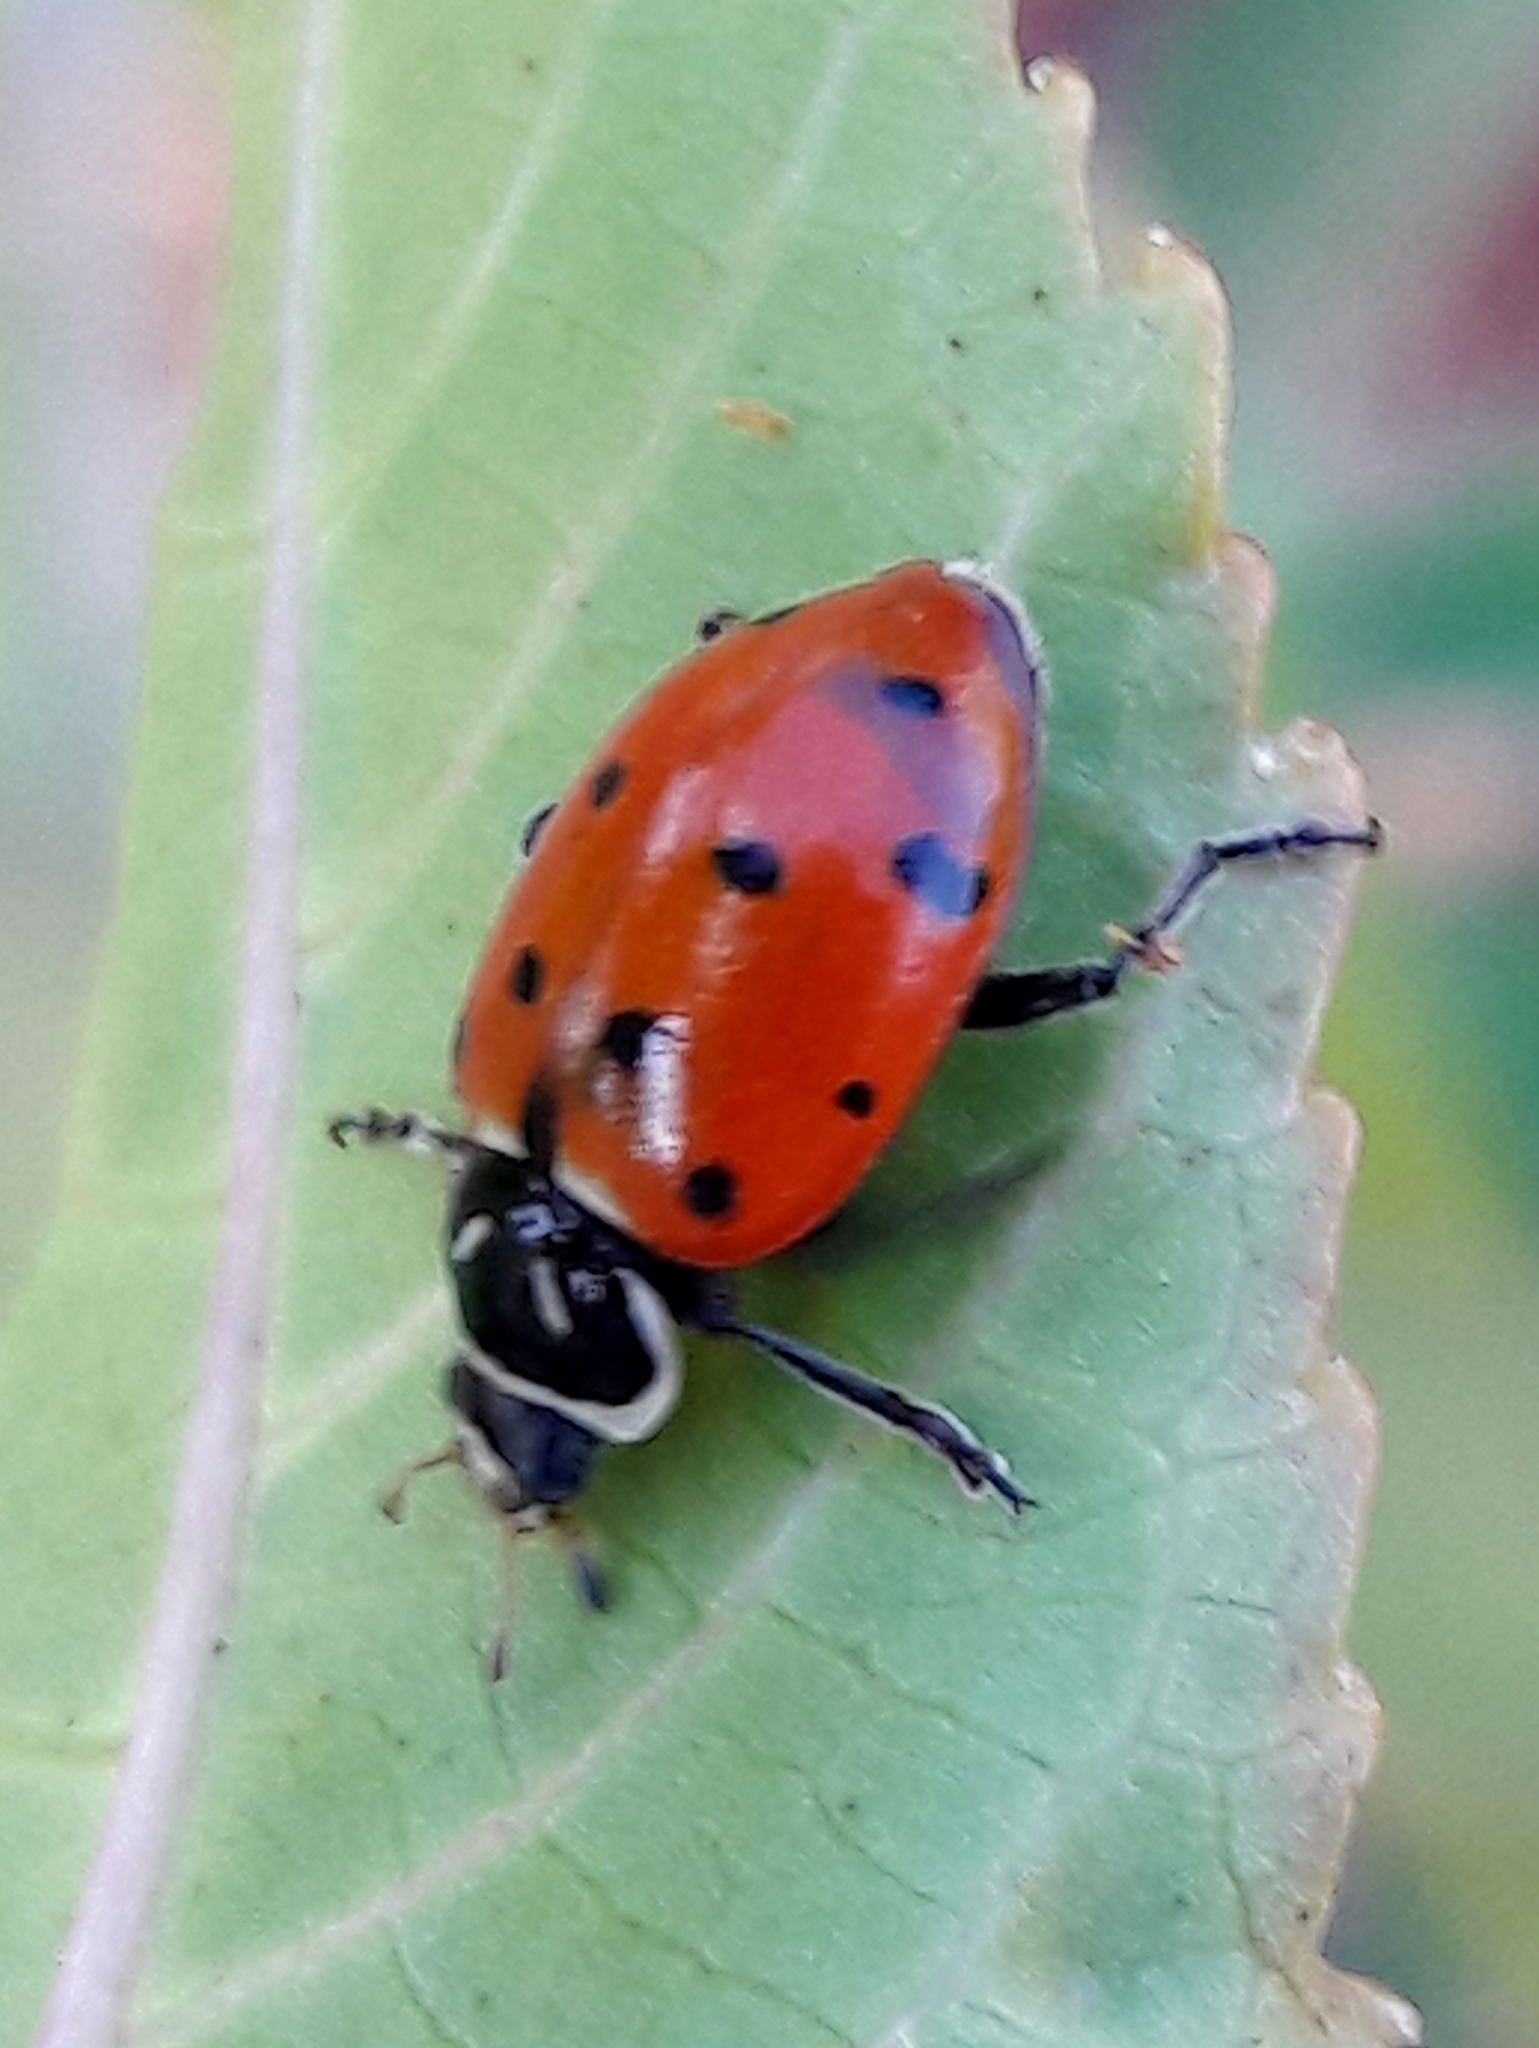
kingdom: Animalia
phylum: Arthropoda
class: Insecta
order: Coleoptera
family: Coccinellidae
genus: Hippodamia
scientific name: Hippodamia convergens
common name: Convergent lady beetle
